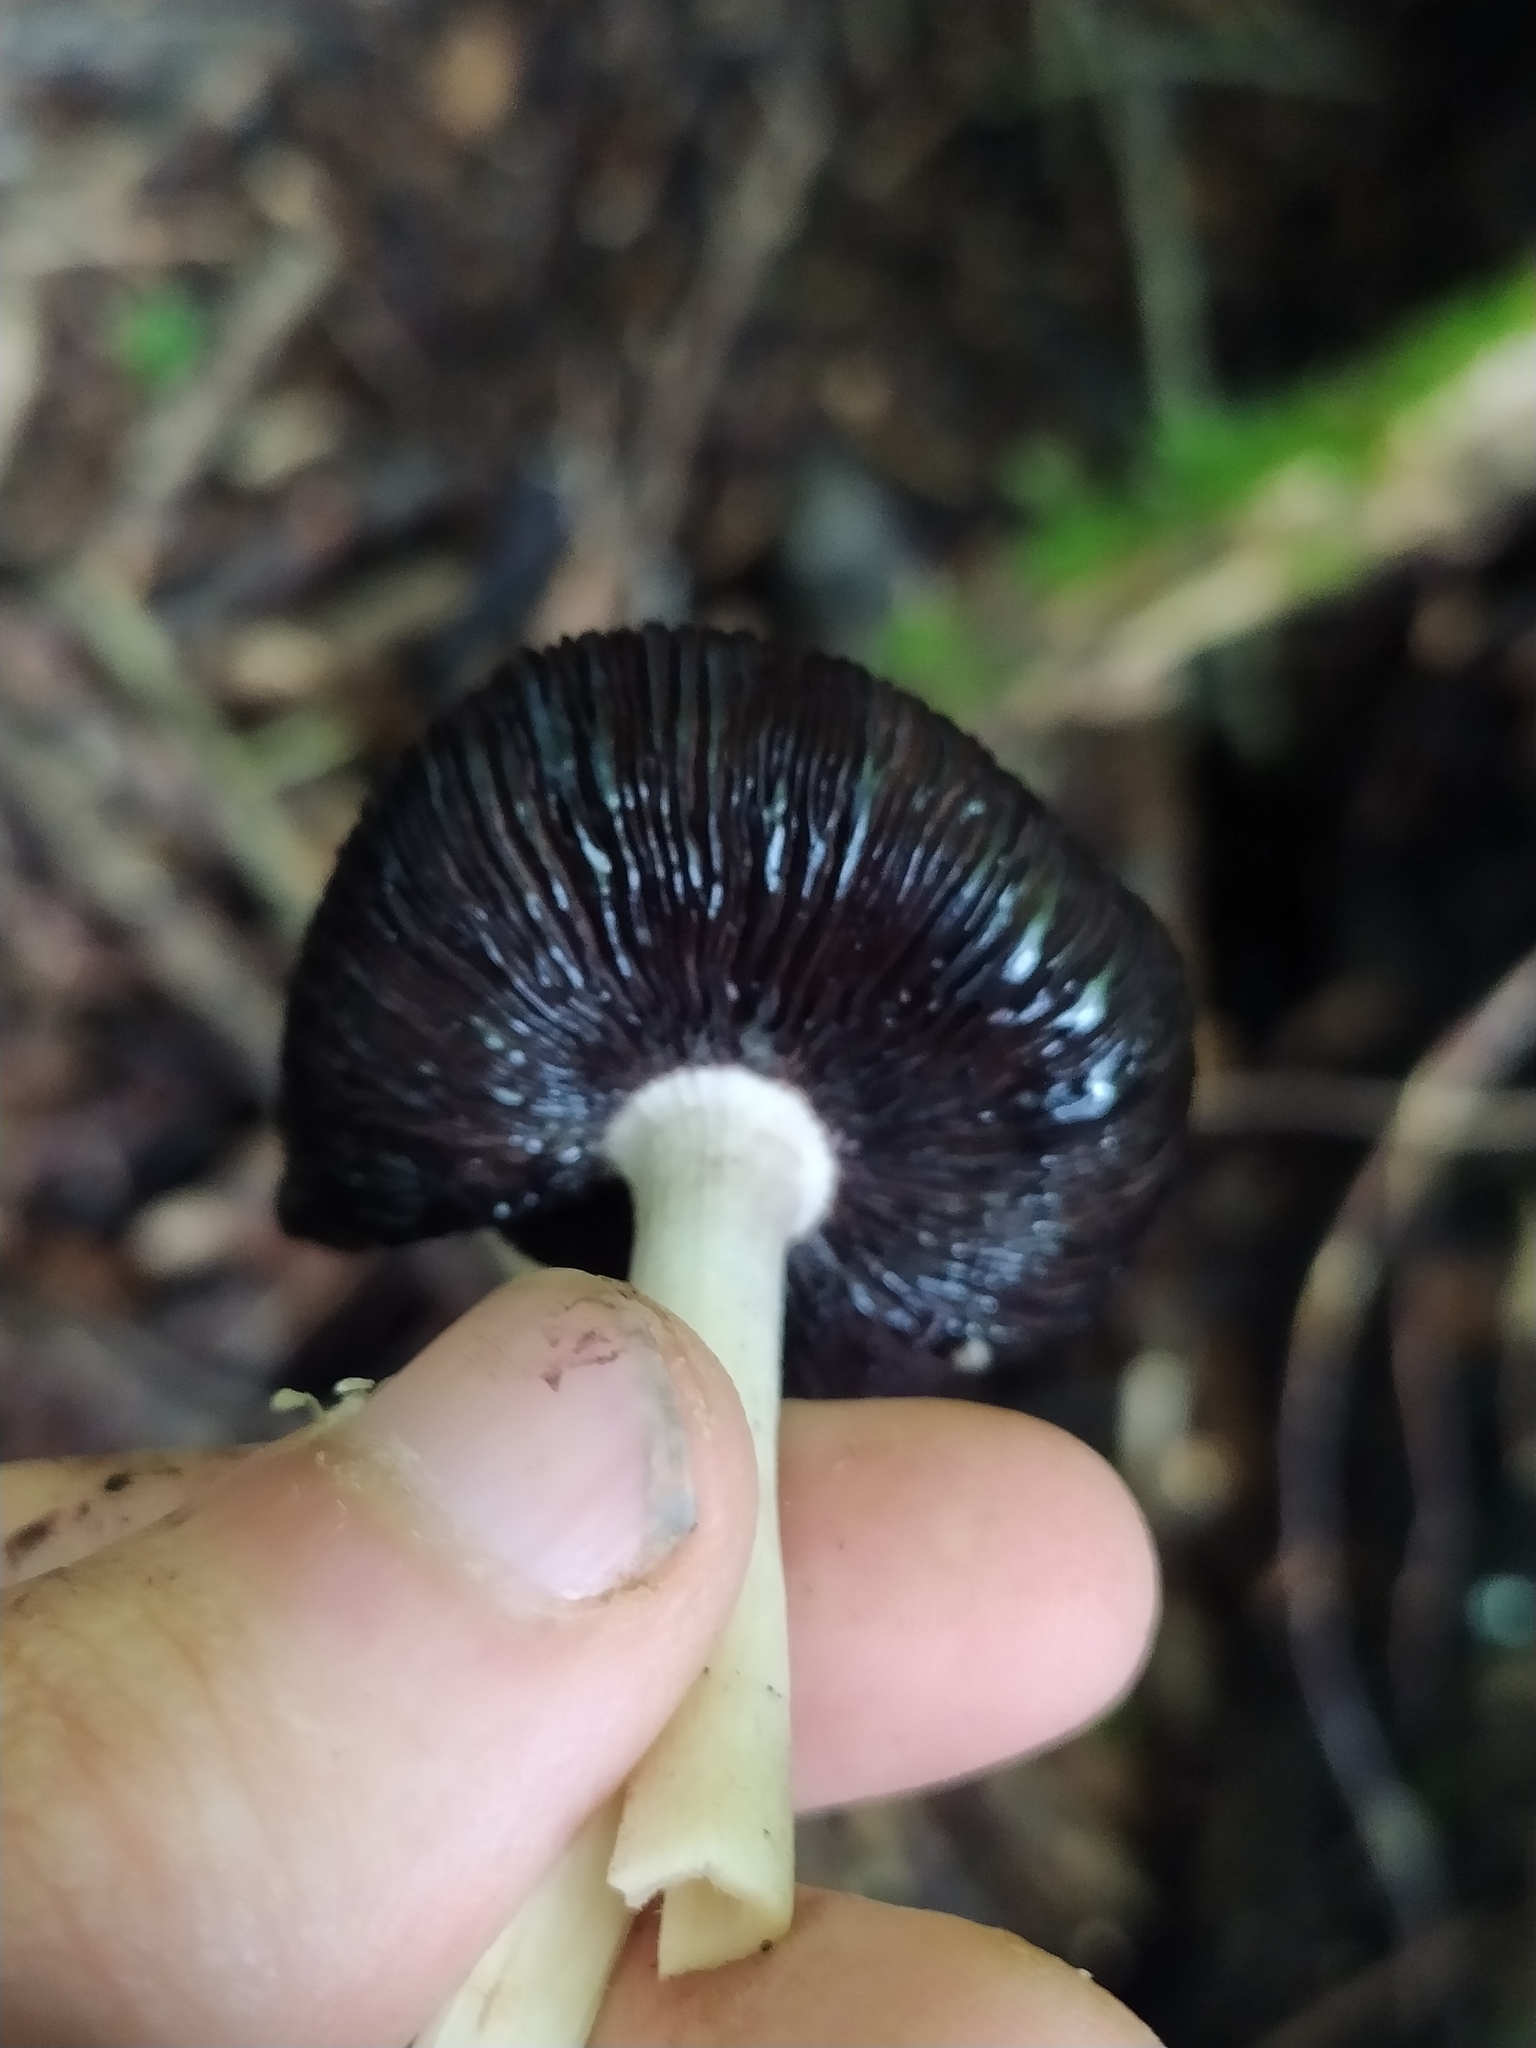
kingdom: Fungi
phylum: Basidiomycota
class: Agaricomycetes
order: Agaricales
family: Psathyrellaceae
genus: Coprinopsis
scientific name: Coprinopsis strossmayeri
